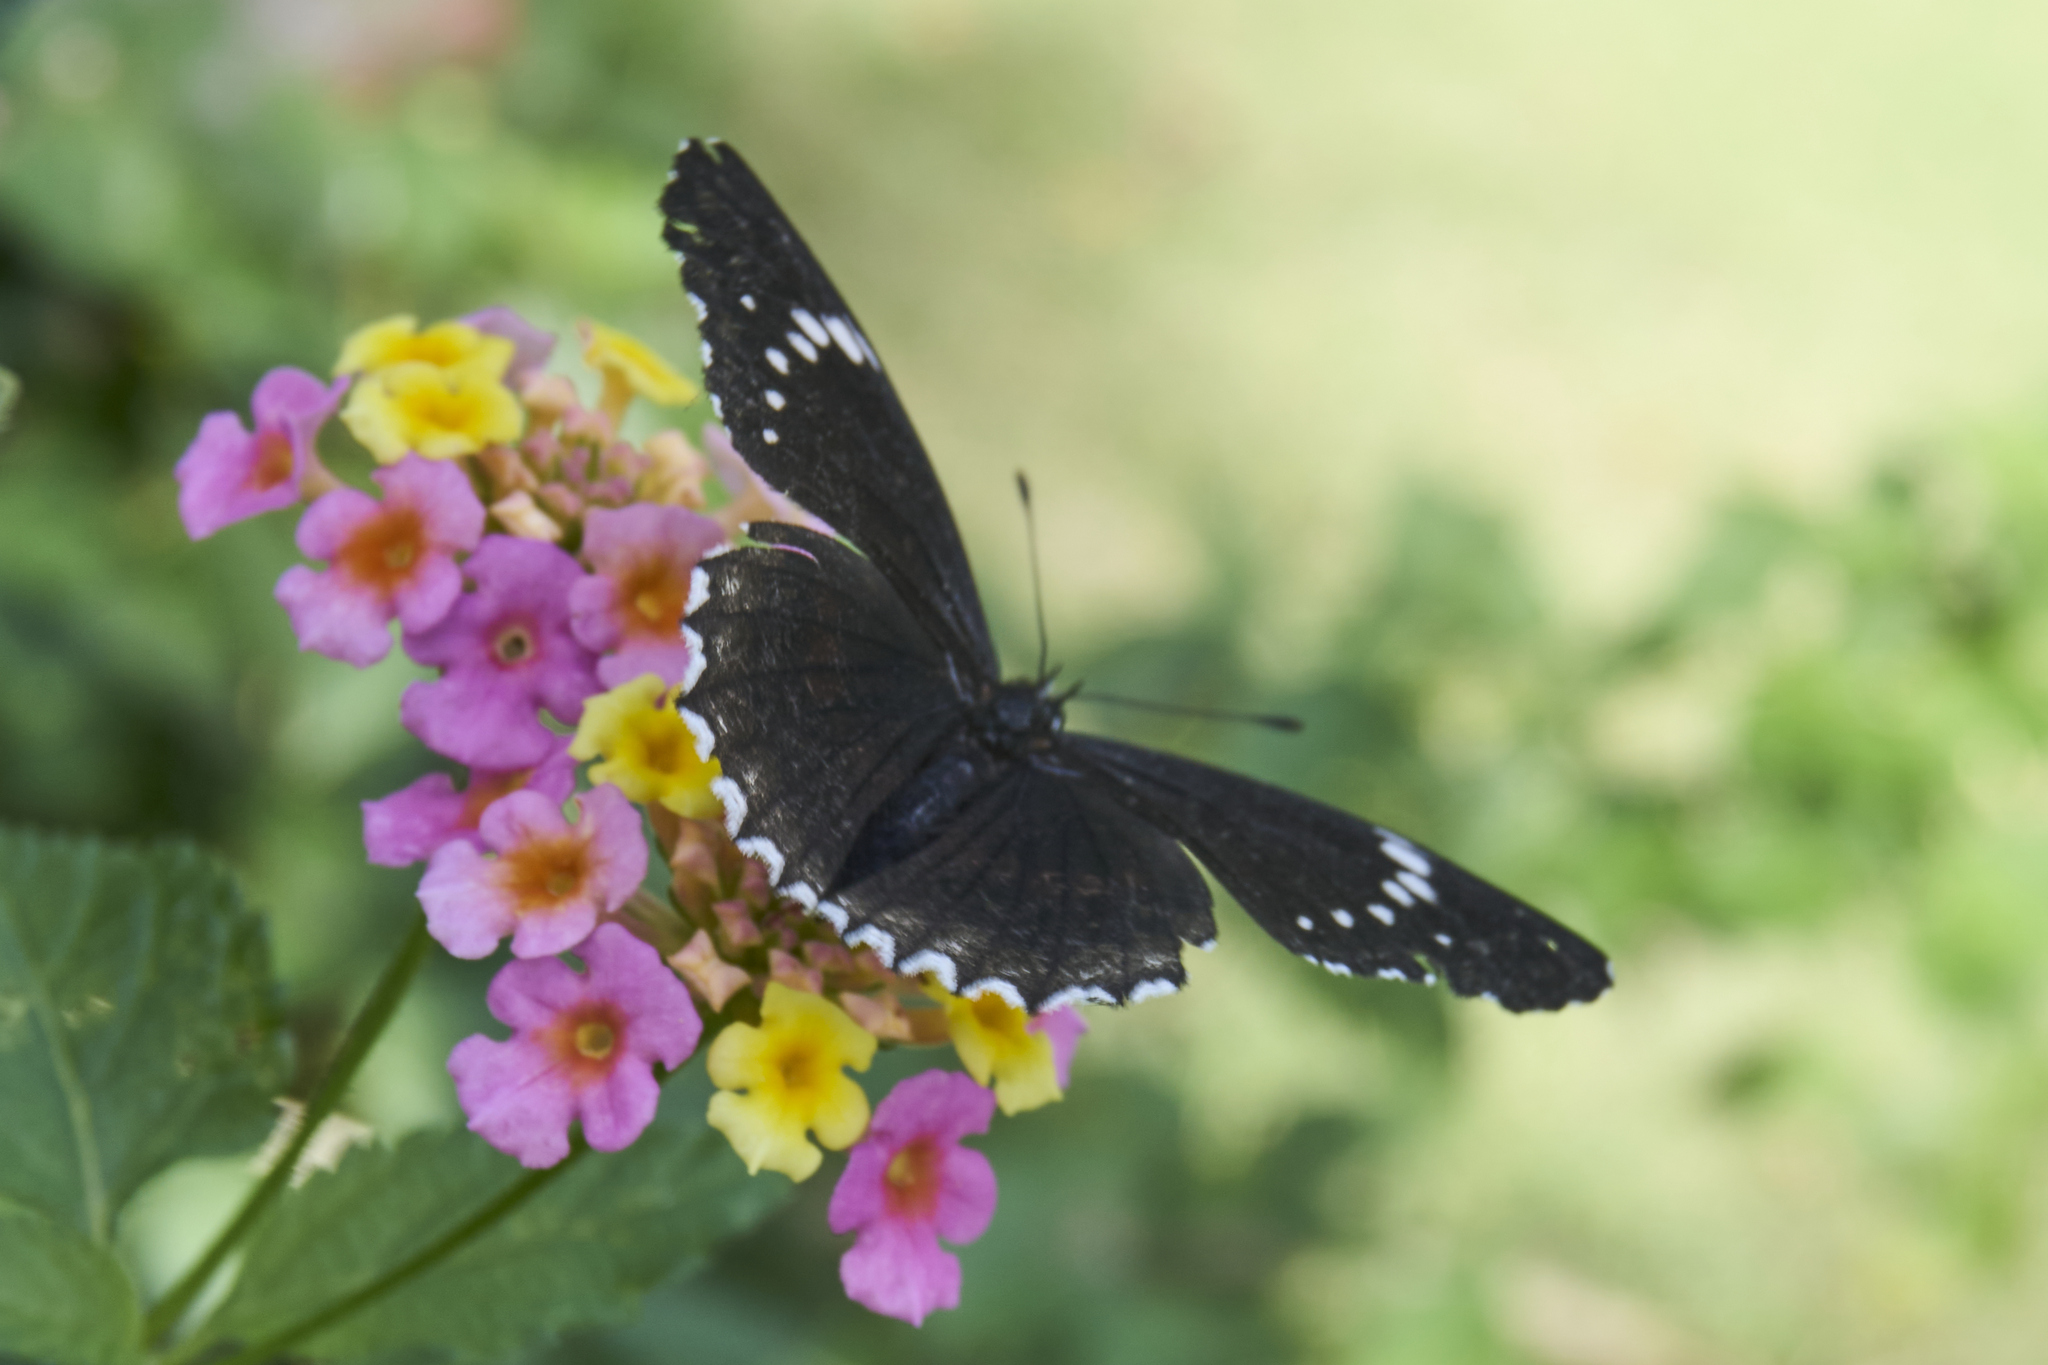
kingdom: Animalia
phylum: Arthropoda
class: Insecta
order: Lepidoptera
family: Nymphalidae
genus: Chlosyne
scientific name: Chlosyne hippodrome
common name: Simple patch
